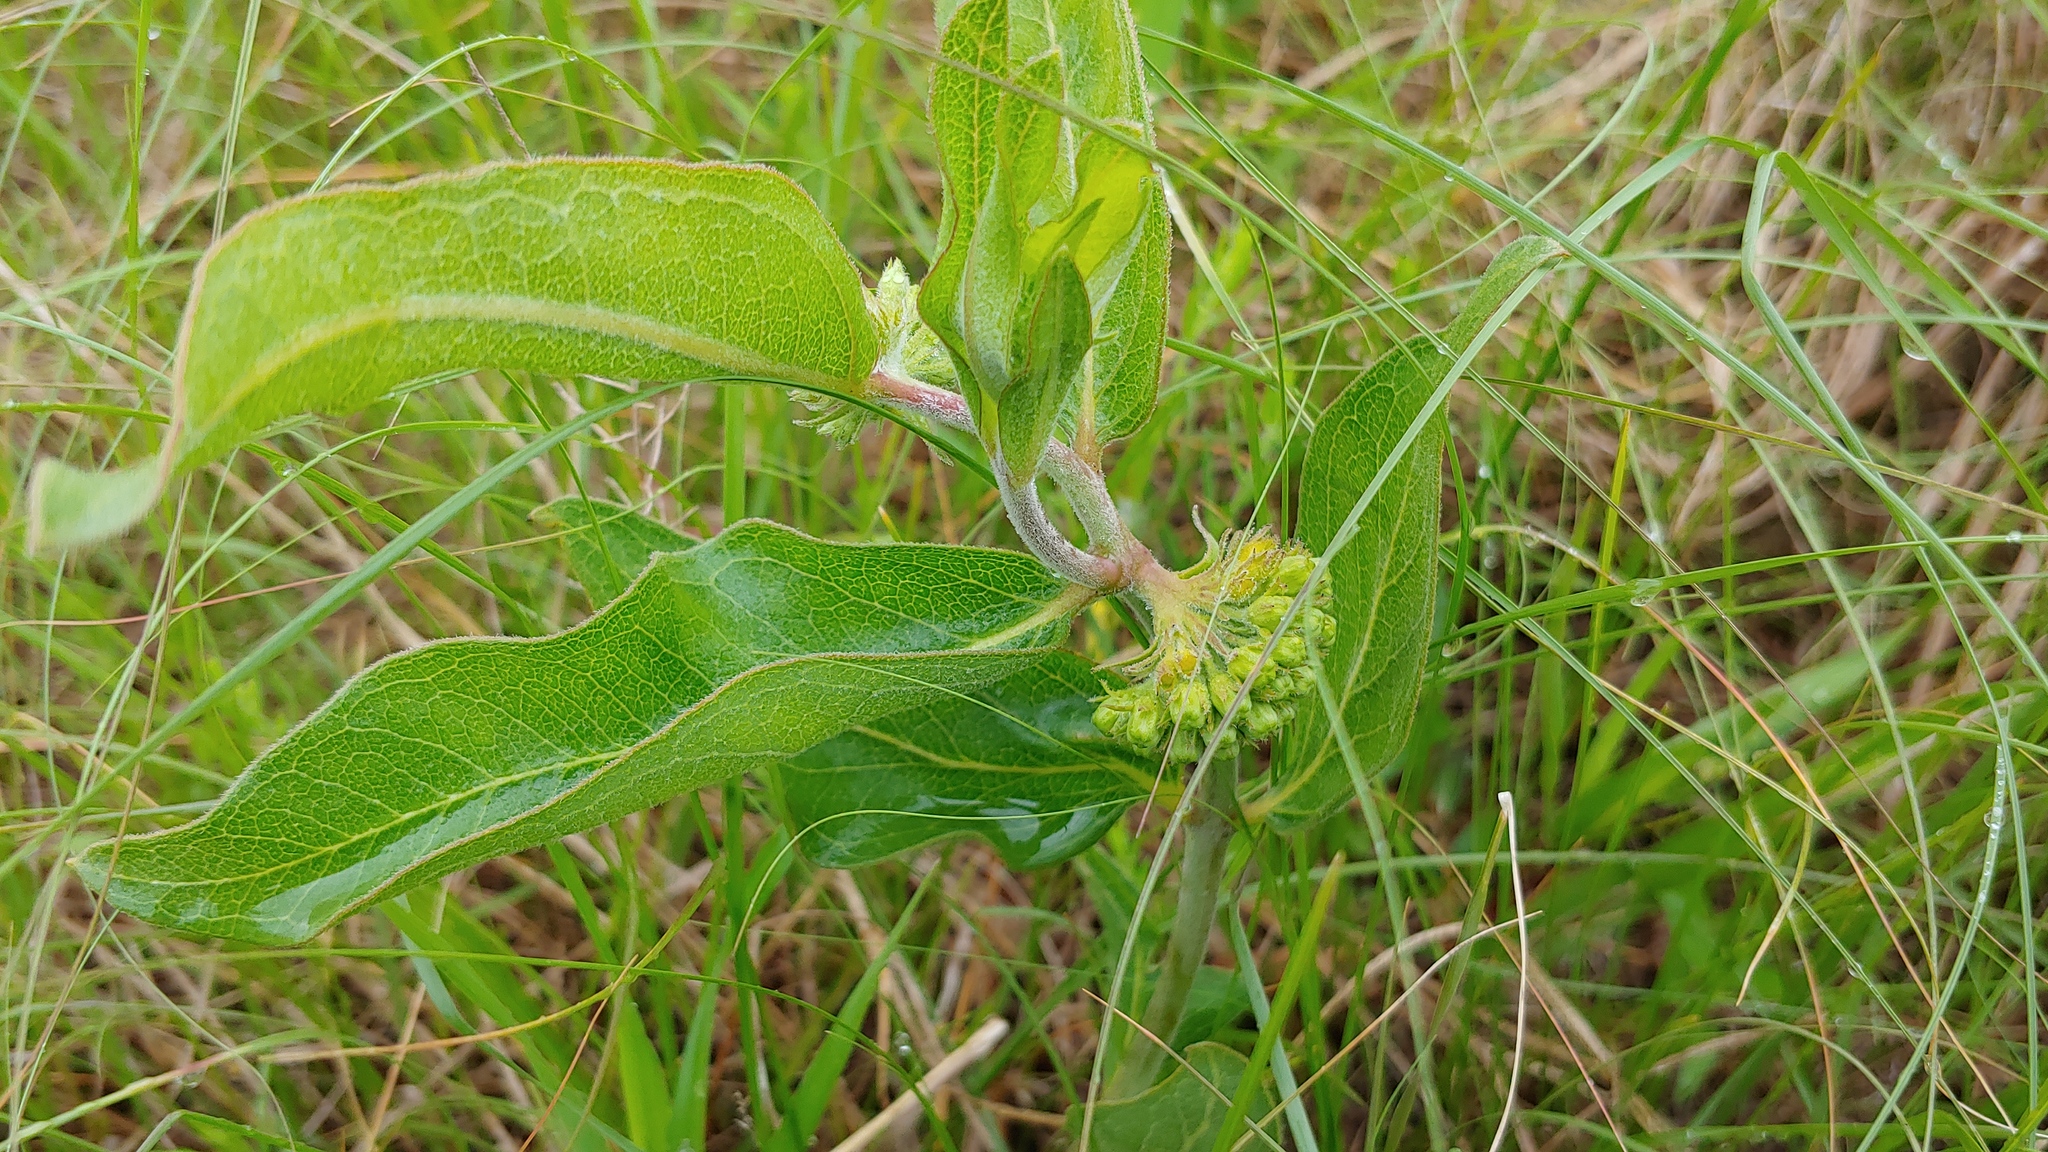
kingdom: Plantae
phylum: Tracheophyta
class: Magnoliopsida
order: Gentianales
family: Apocynaceae
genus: Asclepias
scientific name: Asclepias viridiflora
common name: Green comet milkweed
